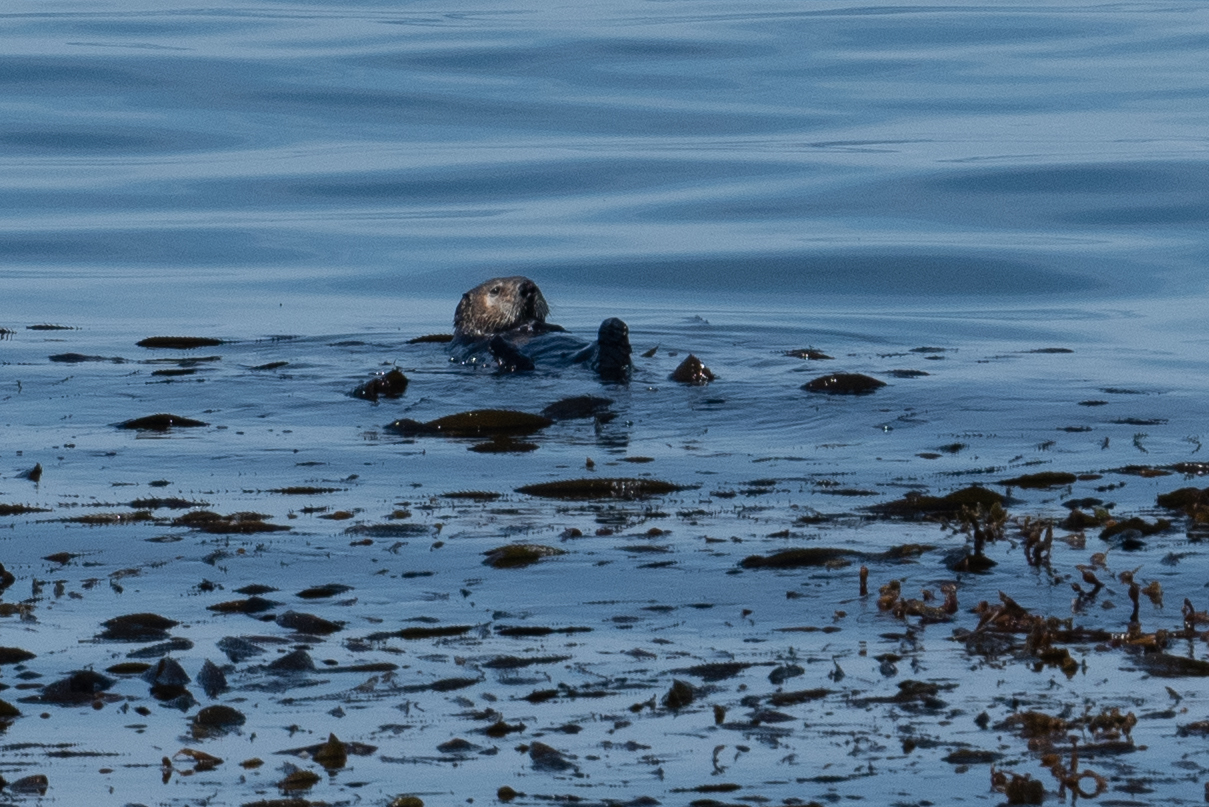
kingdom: Animalia
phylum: Chordata
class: Mammalia
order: Carnivora
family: Mustelidae
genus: Enhydra
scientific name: Enhydra lutris
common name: Sea otter
